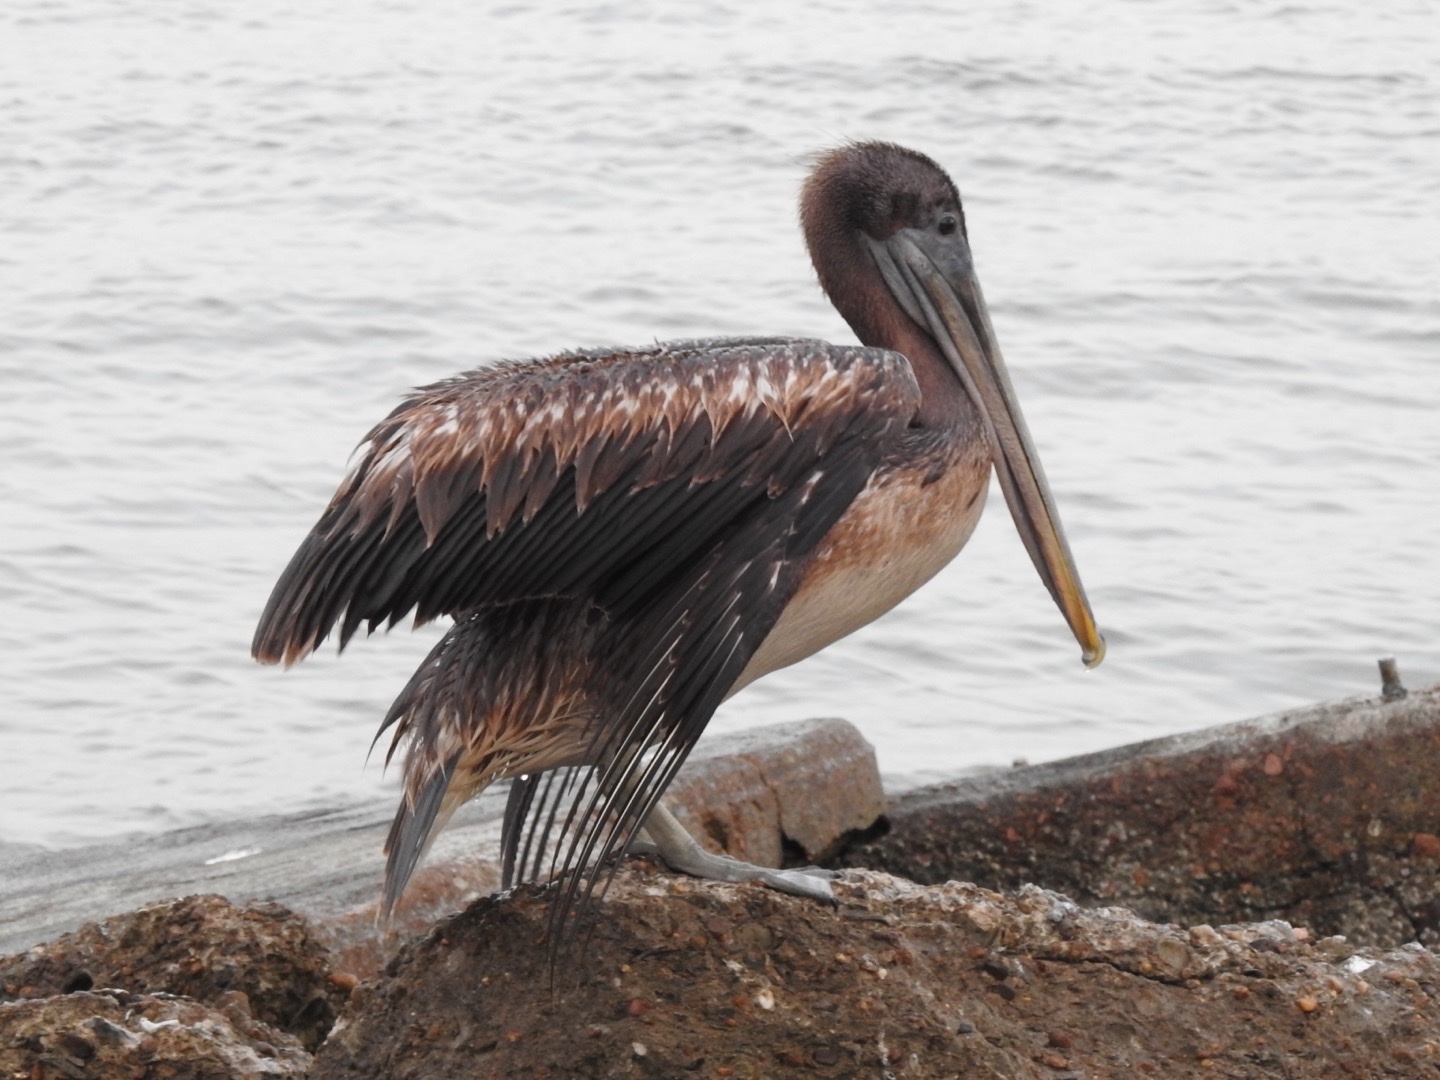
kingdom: Animalia
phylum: Chordata
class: Aves
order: Pelecaniformes
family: Pelecanidae
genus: Pelecanus
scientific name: Pelecanus occidentalis
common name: Brown pelican
